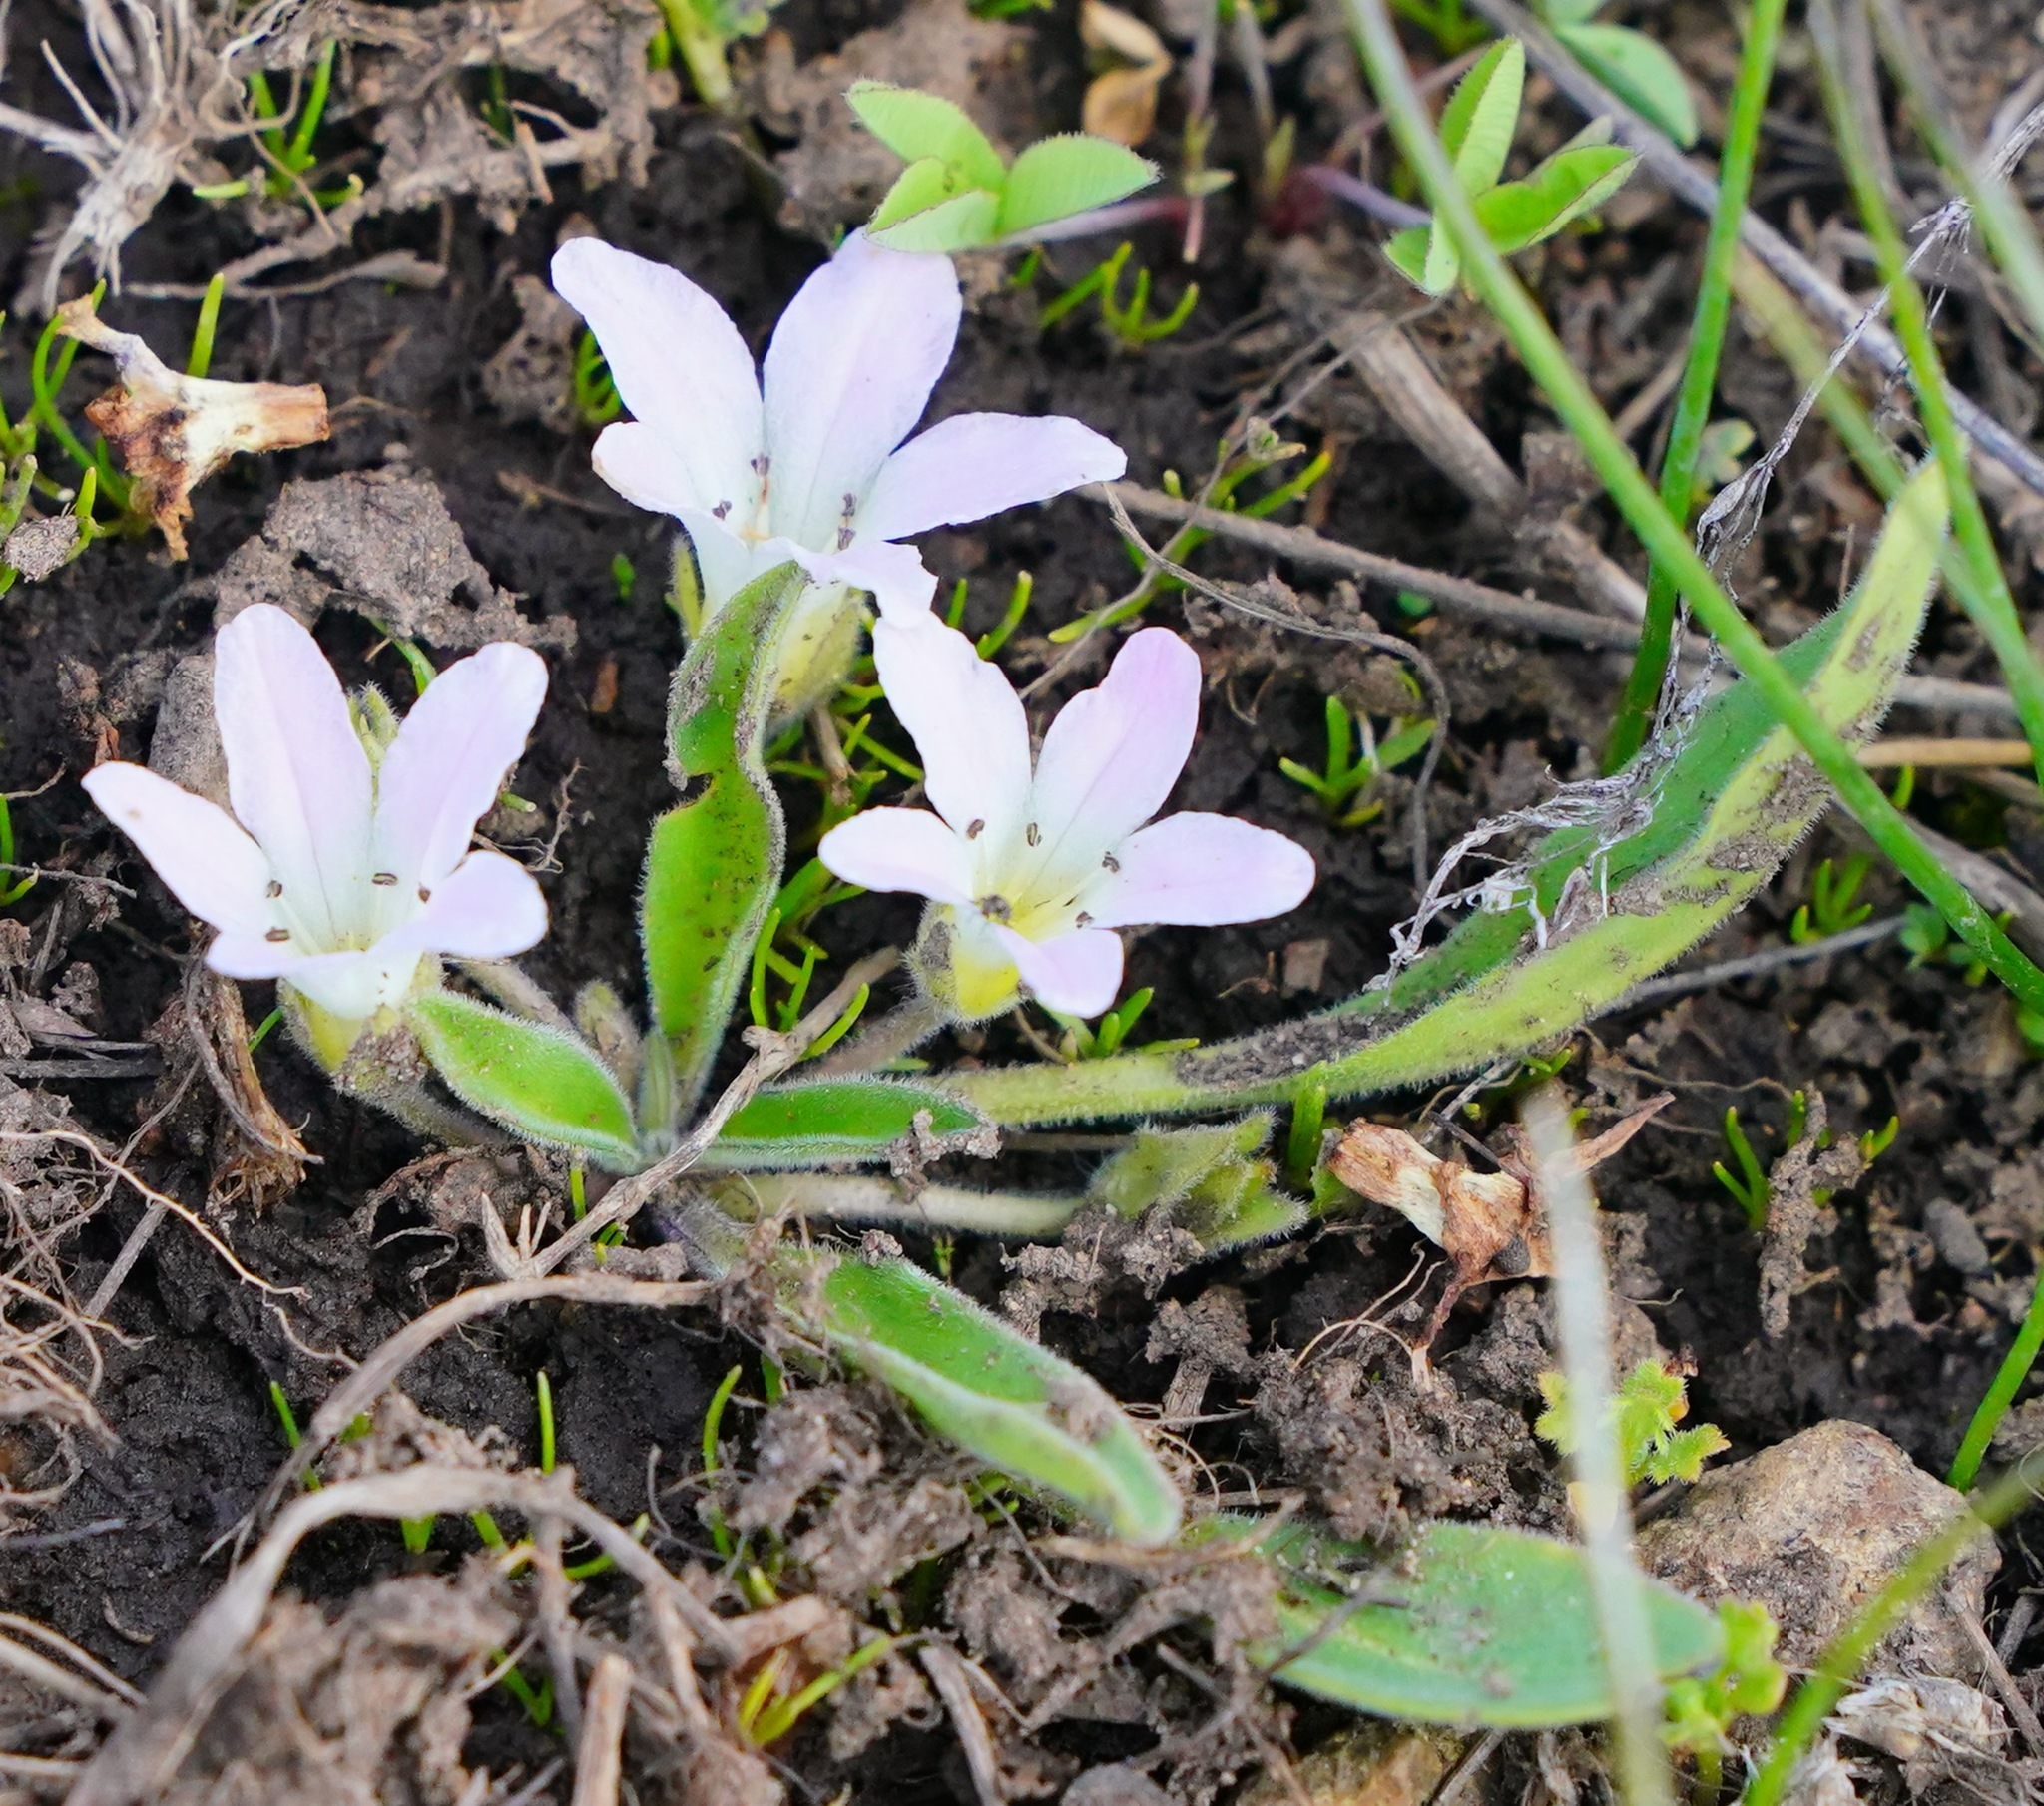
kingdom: Plantae
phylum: Tracheophyta
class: Magnoliopsida
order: Boraginales
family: Hydrophyllaceae
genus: Hesperochiron
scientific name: Hesperochiron californicus
